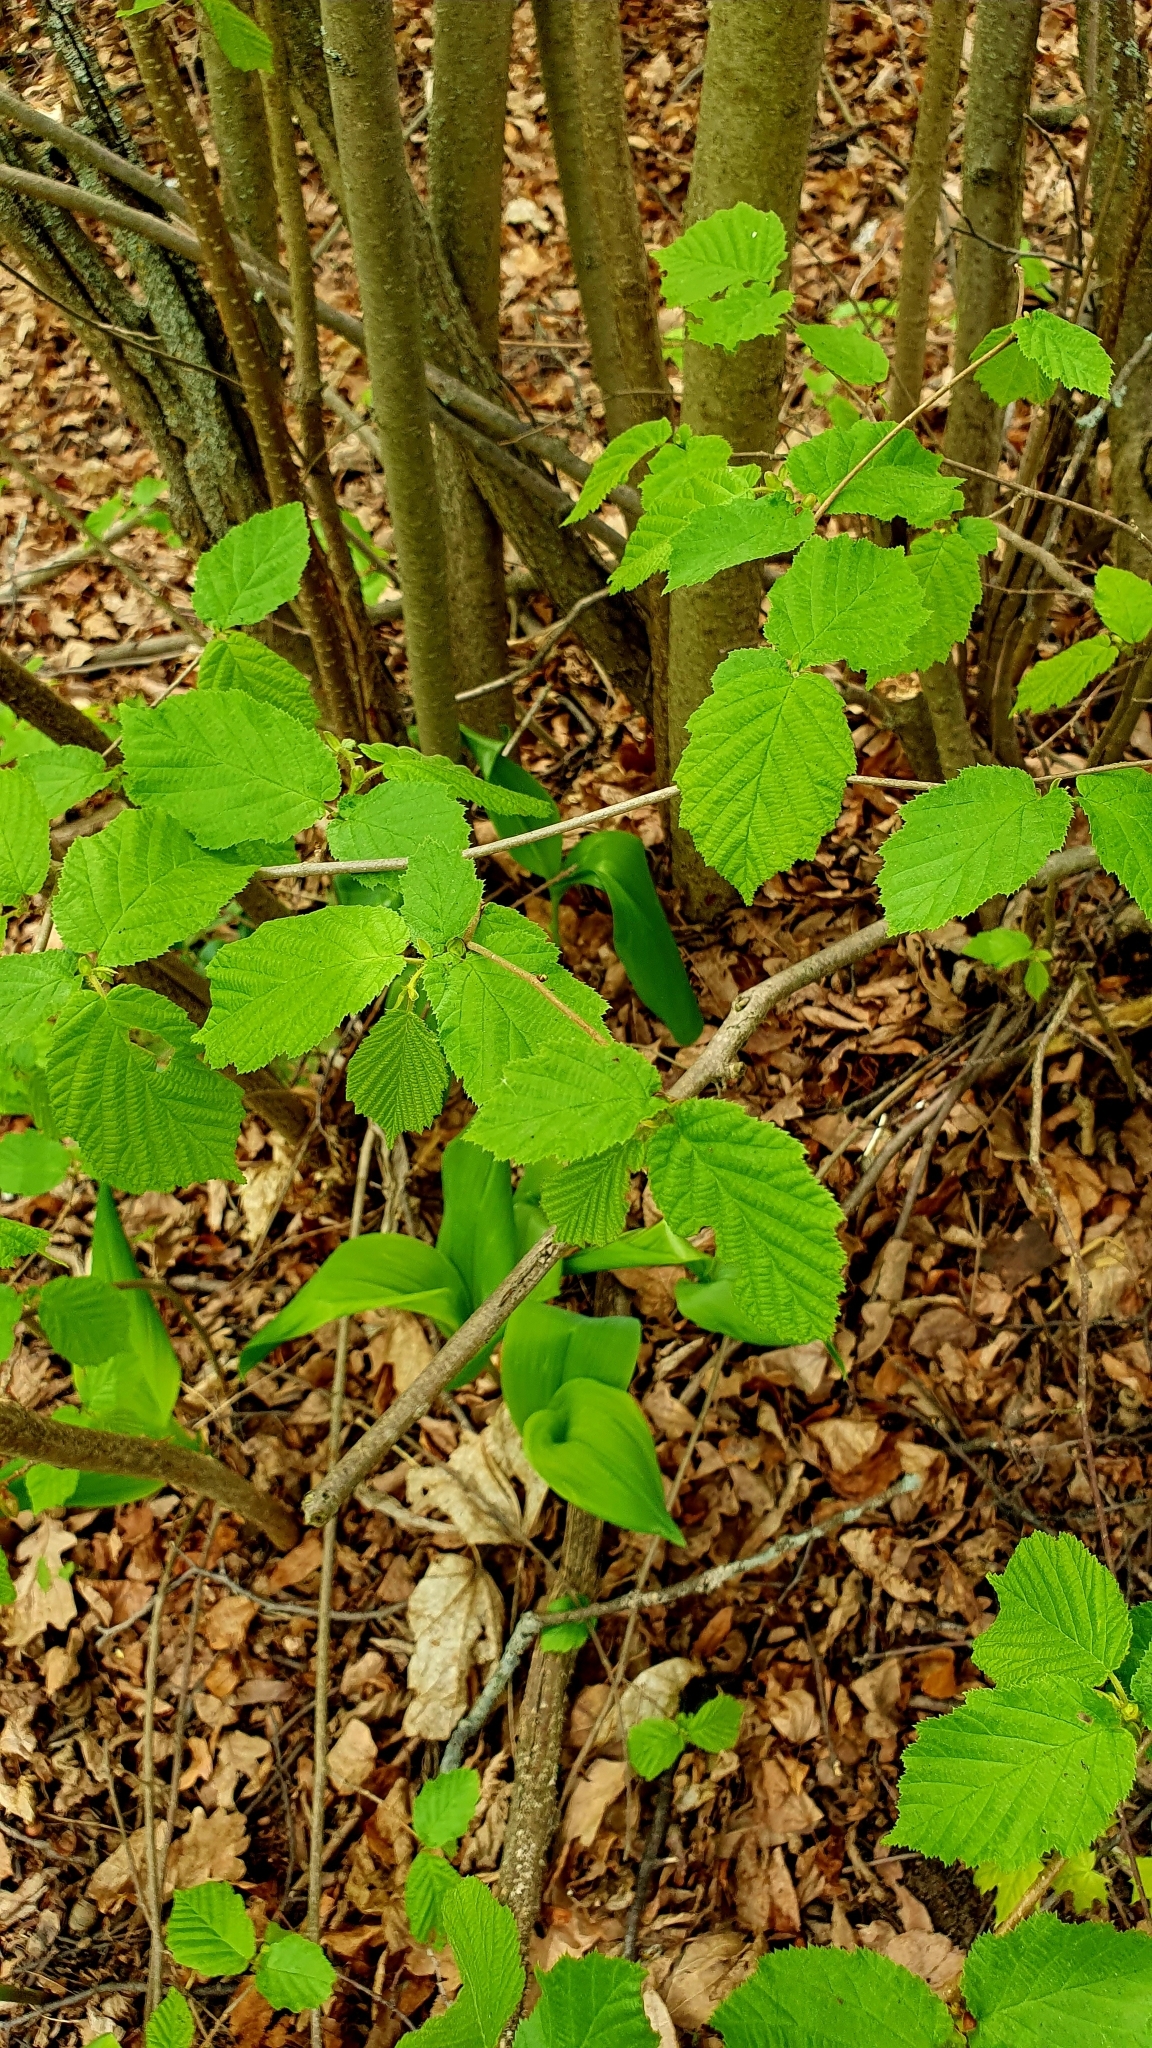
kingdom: Plantae
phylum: Tracheophyta
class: Magnoliopsida
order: Fagales
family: Betulaceae
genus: Corylus
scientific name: Corylus avellana
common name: European hazel
